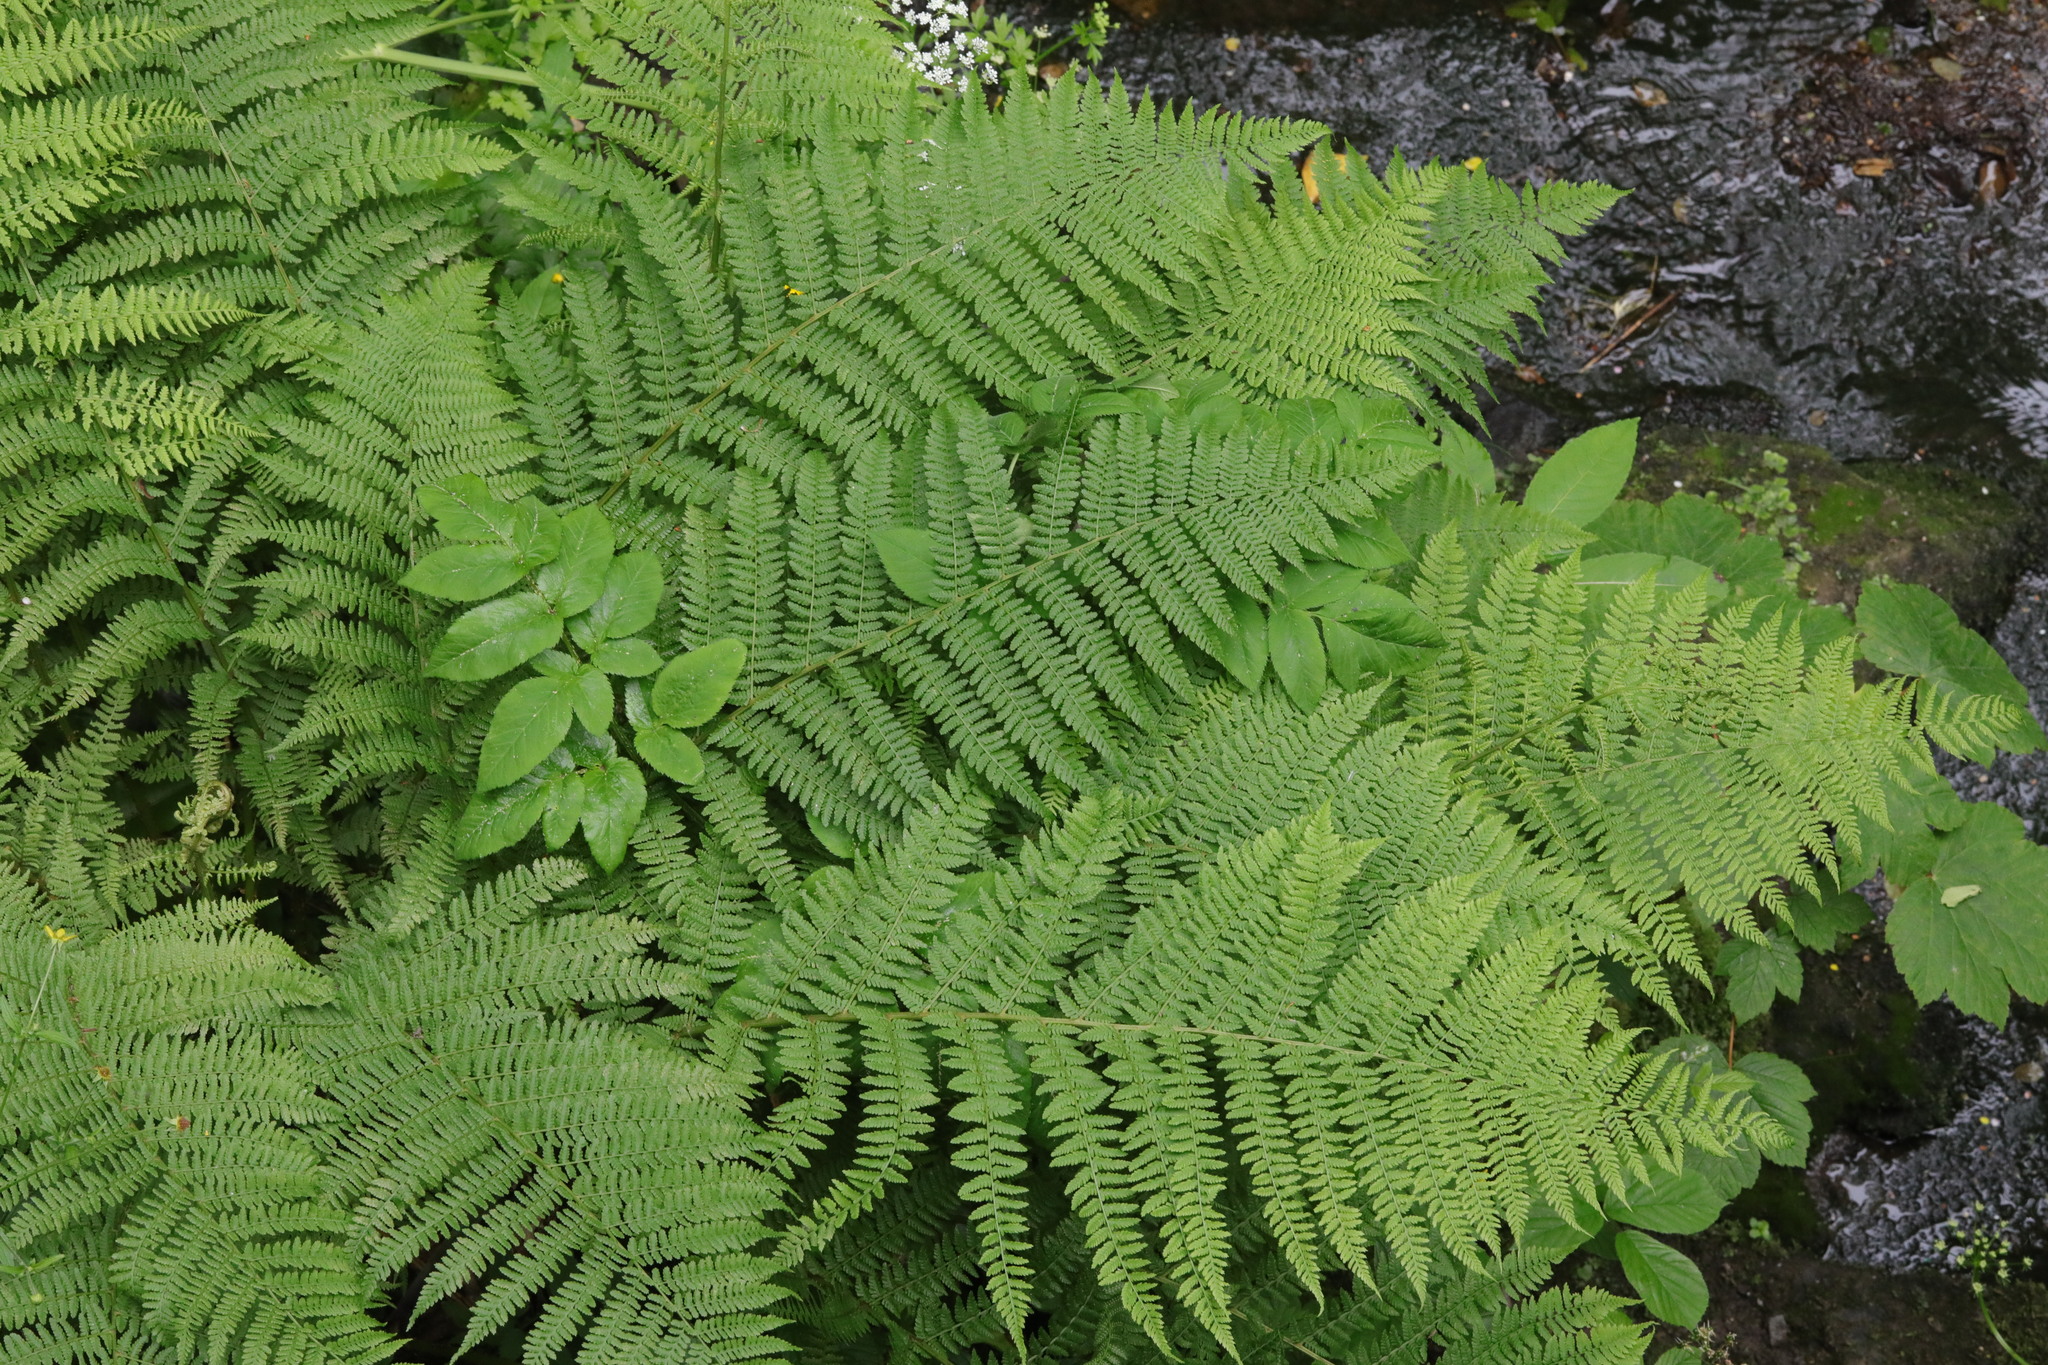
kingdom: Plantae
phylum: Tracheophyta
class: Polypodiopsida
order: Polypodiales
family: Athyriaceae
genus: Athyrium
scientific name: Athyrium filix-femina
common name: Lady fern
